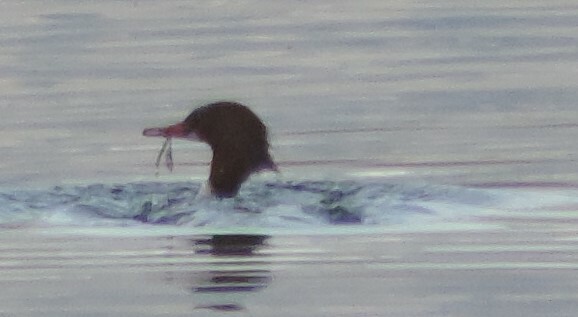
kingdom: Animalia
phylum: Chordata
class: Aves
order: Anseriformes
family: Anatidae
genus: Mergus
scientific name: Mergus merganser
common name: Common merganser
